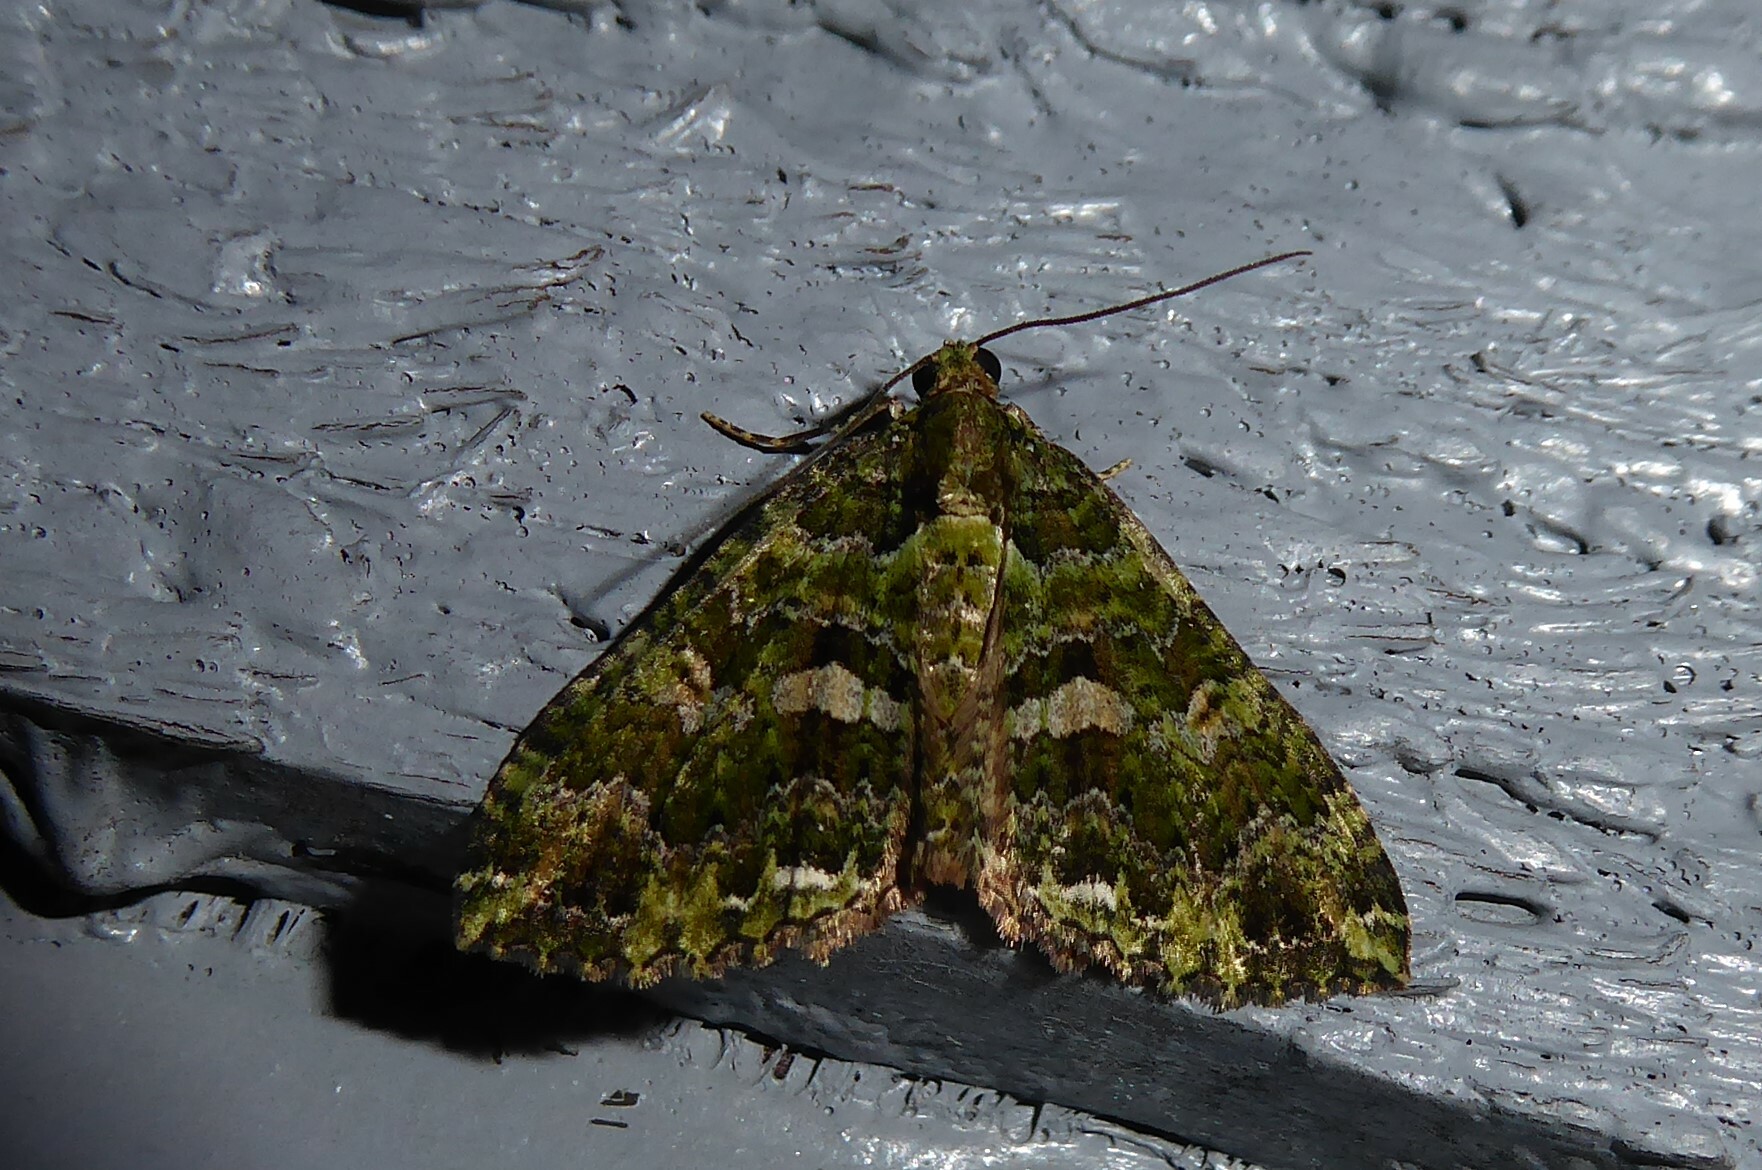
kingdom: Animalia
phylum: Arthropoda
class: Insecta
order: Lepidoptera
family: Geometridae
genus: Austrocidaria
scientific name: Austrocidaria similata
